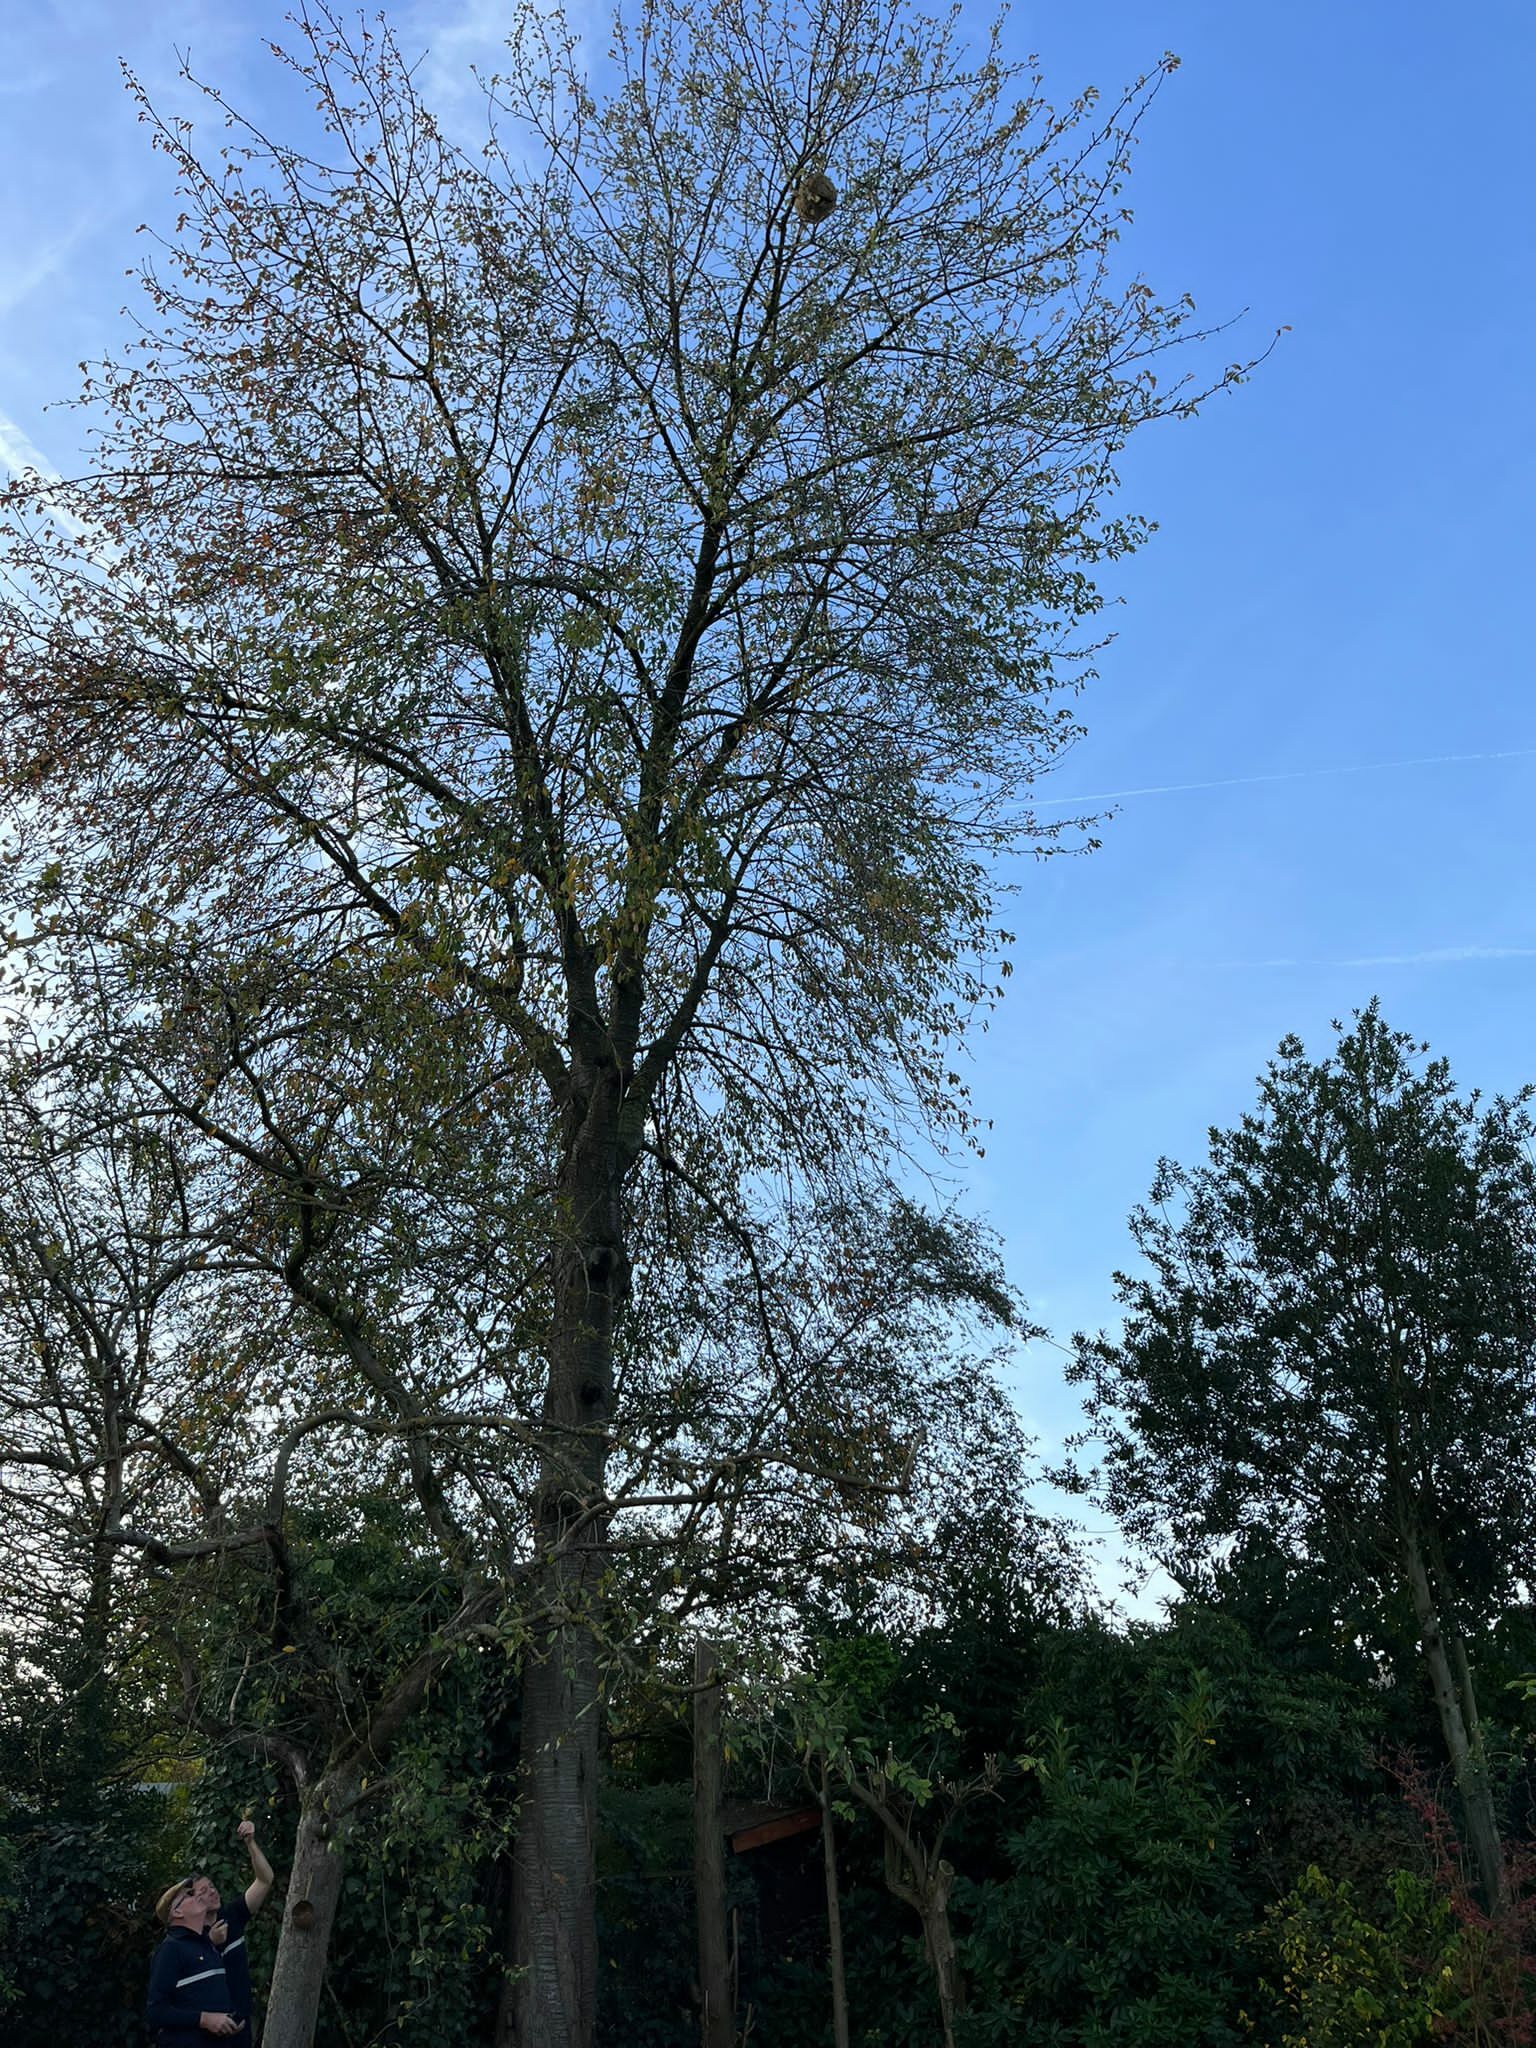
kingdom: Animalia
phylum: Arthropoda
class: Insecta
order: Hymenoptera
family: Vespidae
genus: Vespa
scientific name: Vespa velutina
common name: Asian hornet
